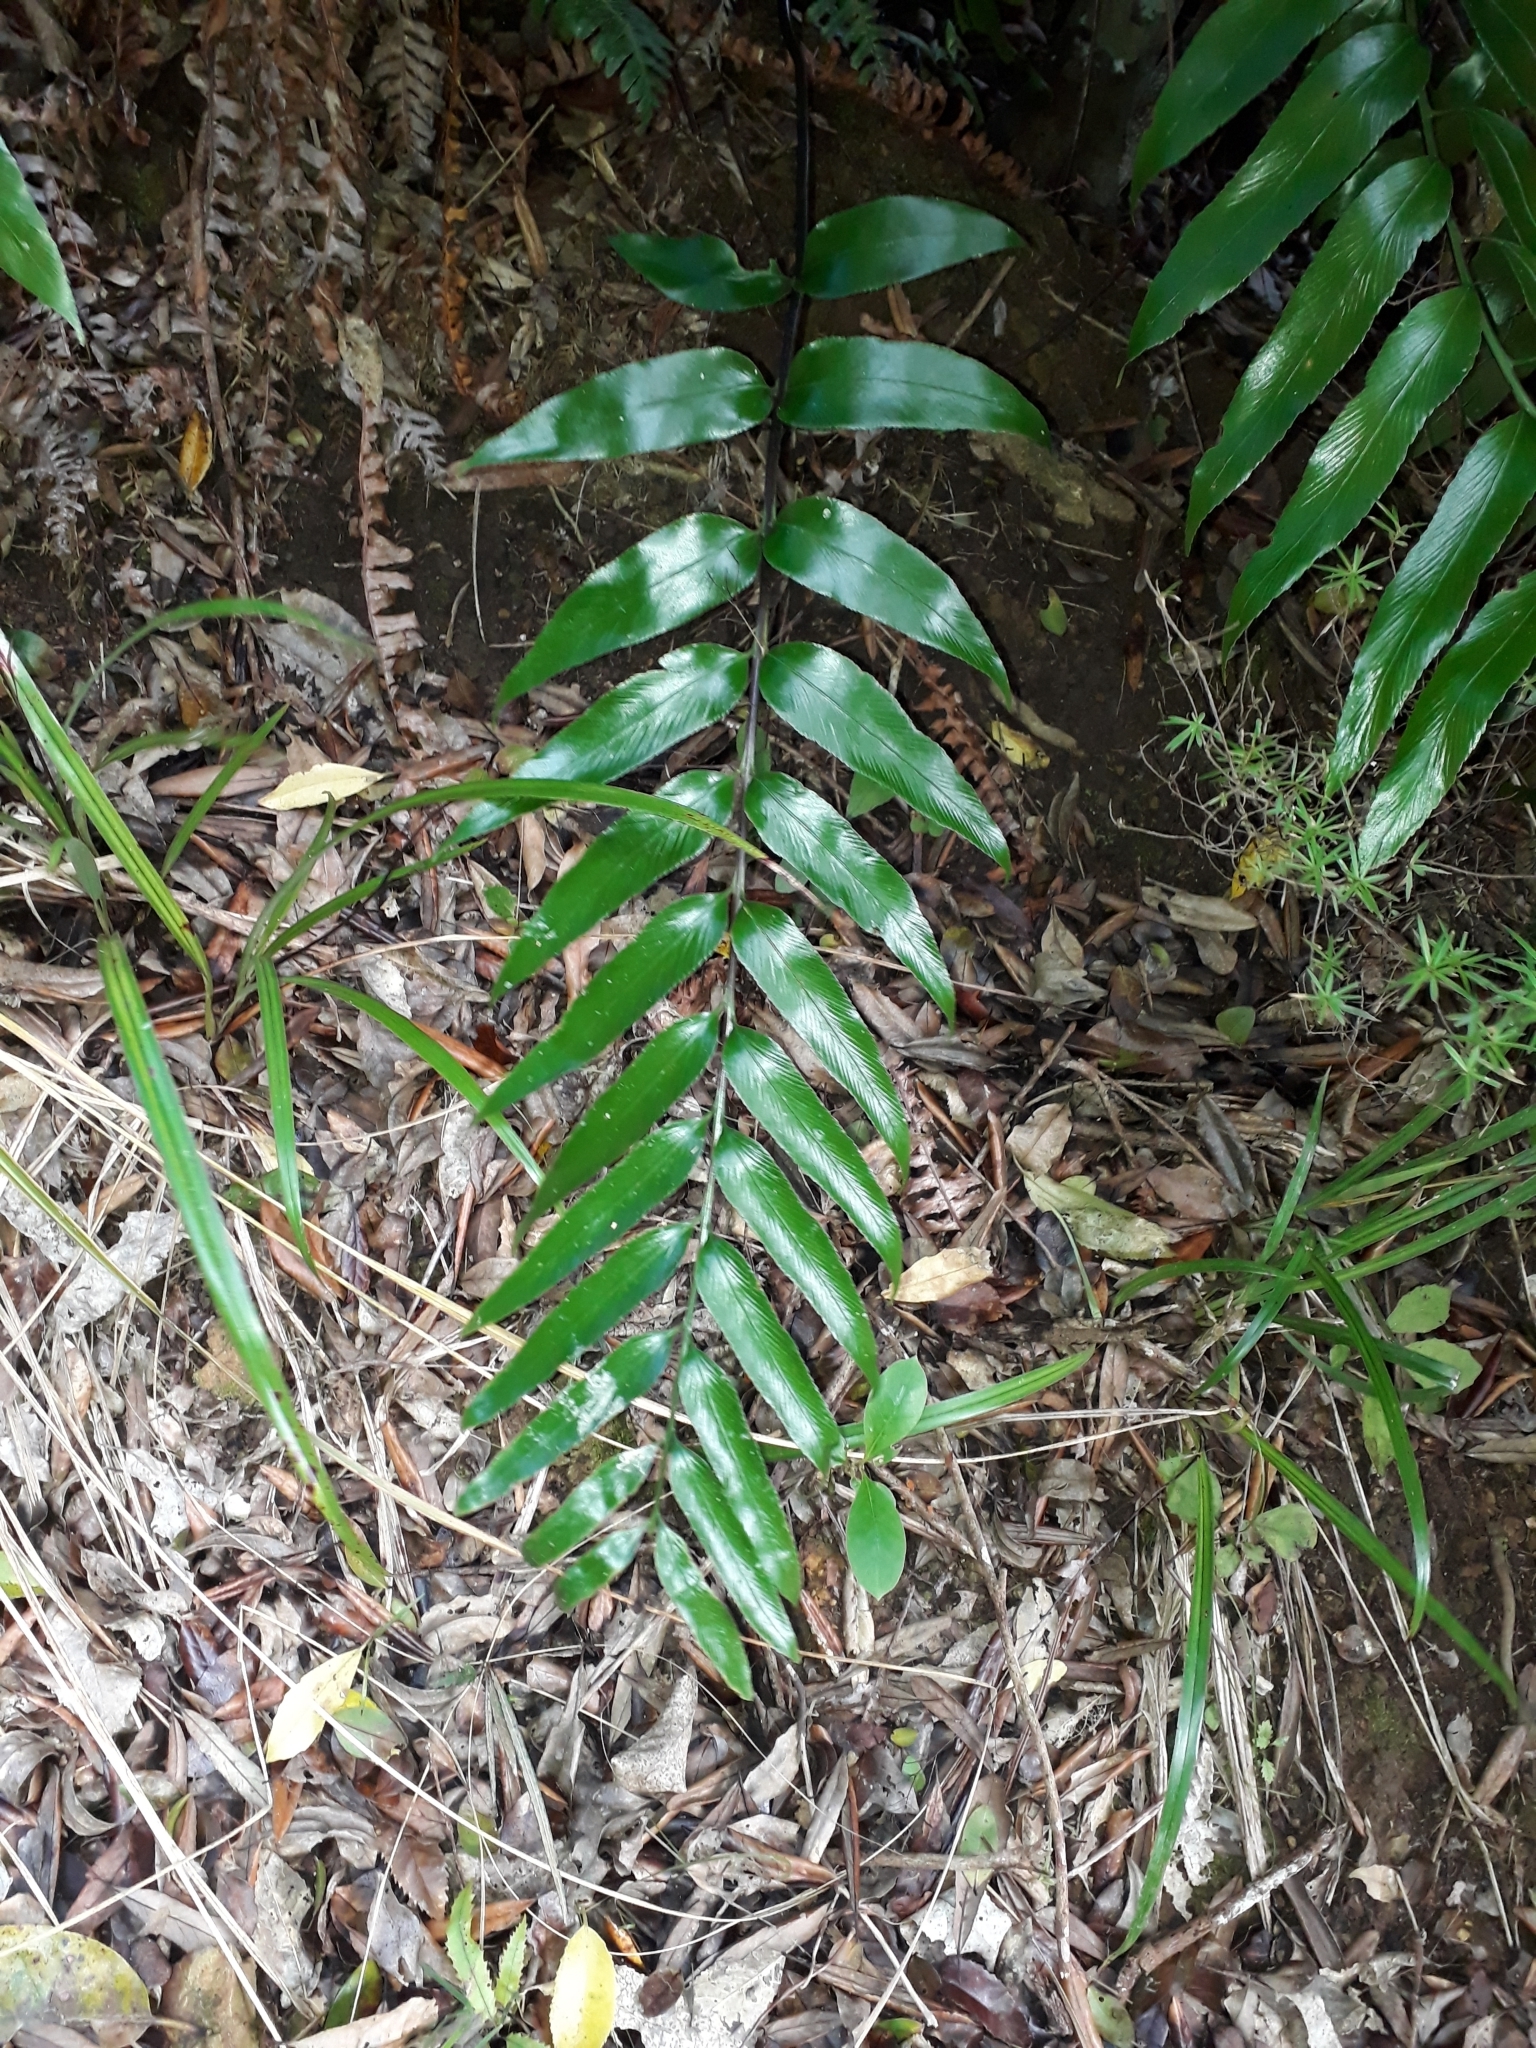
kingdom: Plantae
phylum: Tracheophyta
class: Polypodiopsida
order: Polypodiales
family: Aspleniaceae
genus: Asplenium
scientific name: Asplenium oblongifolium
